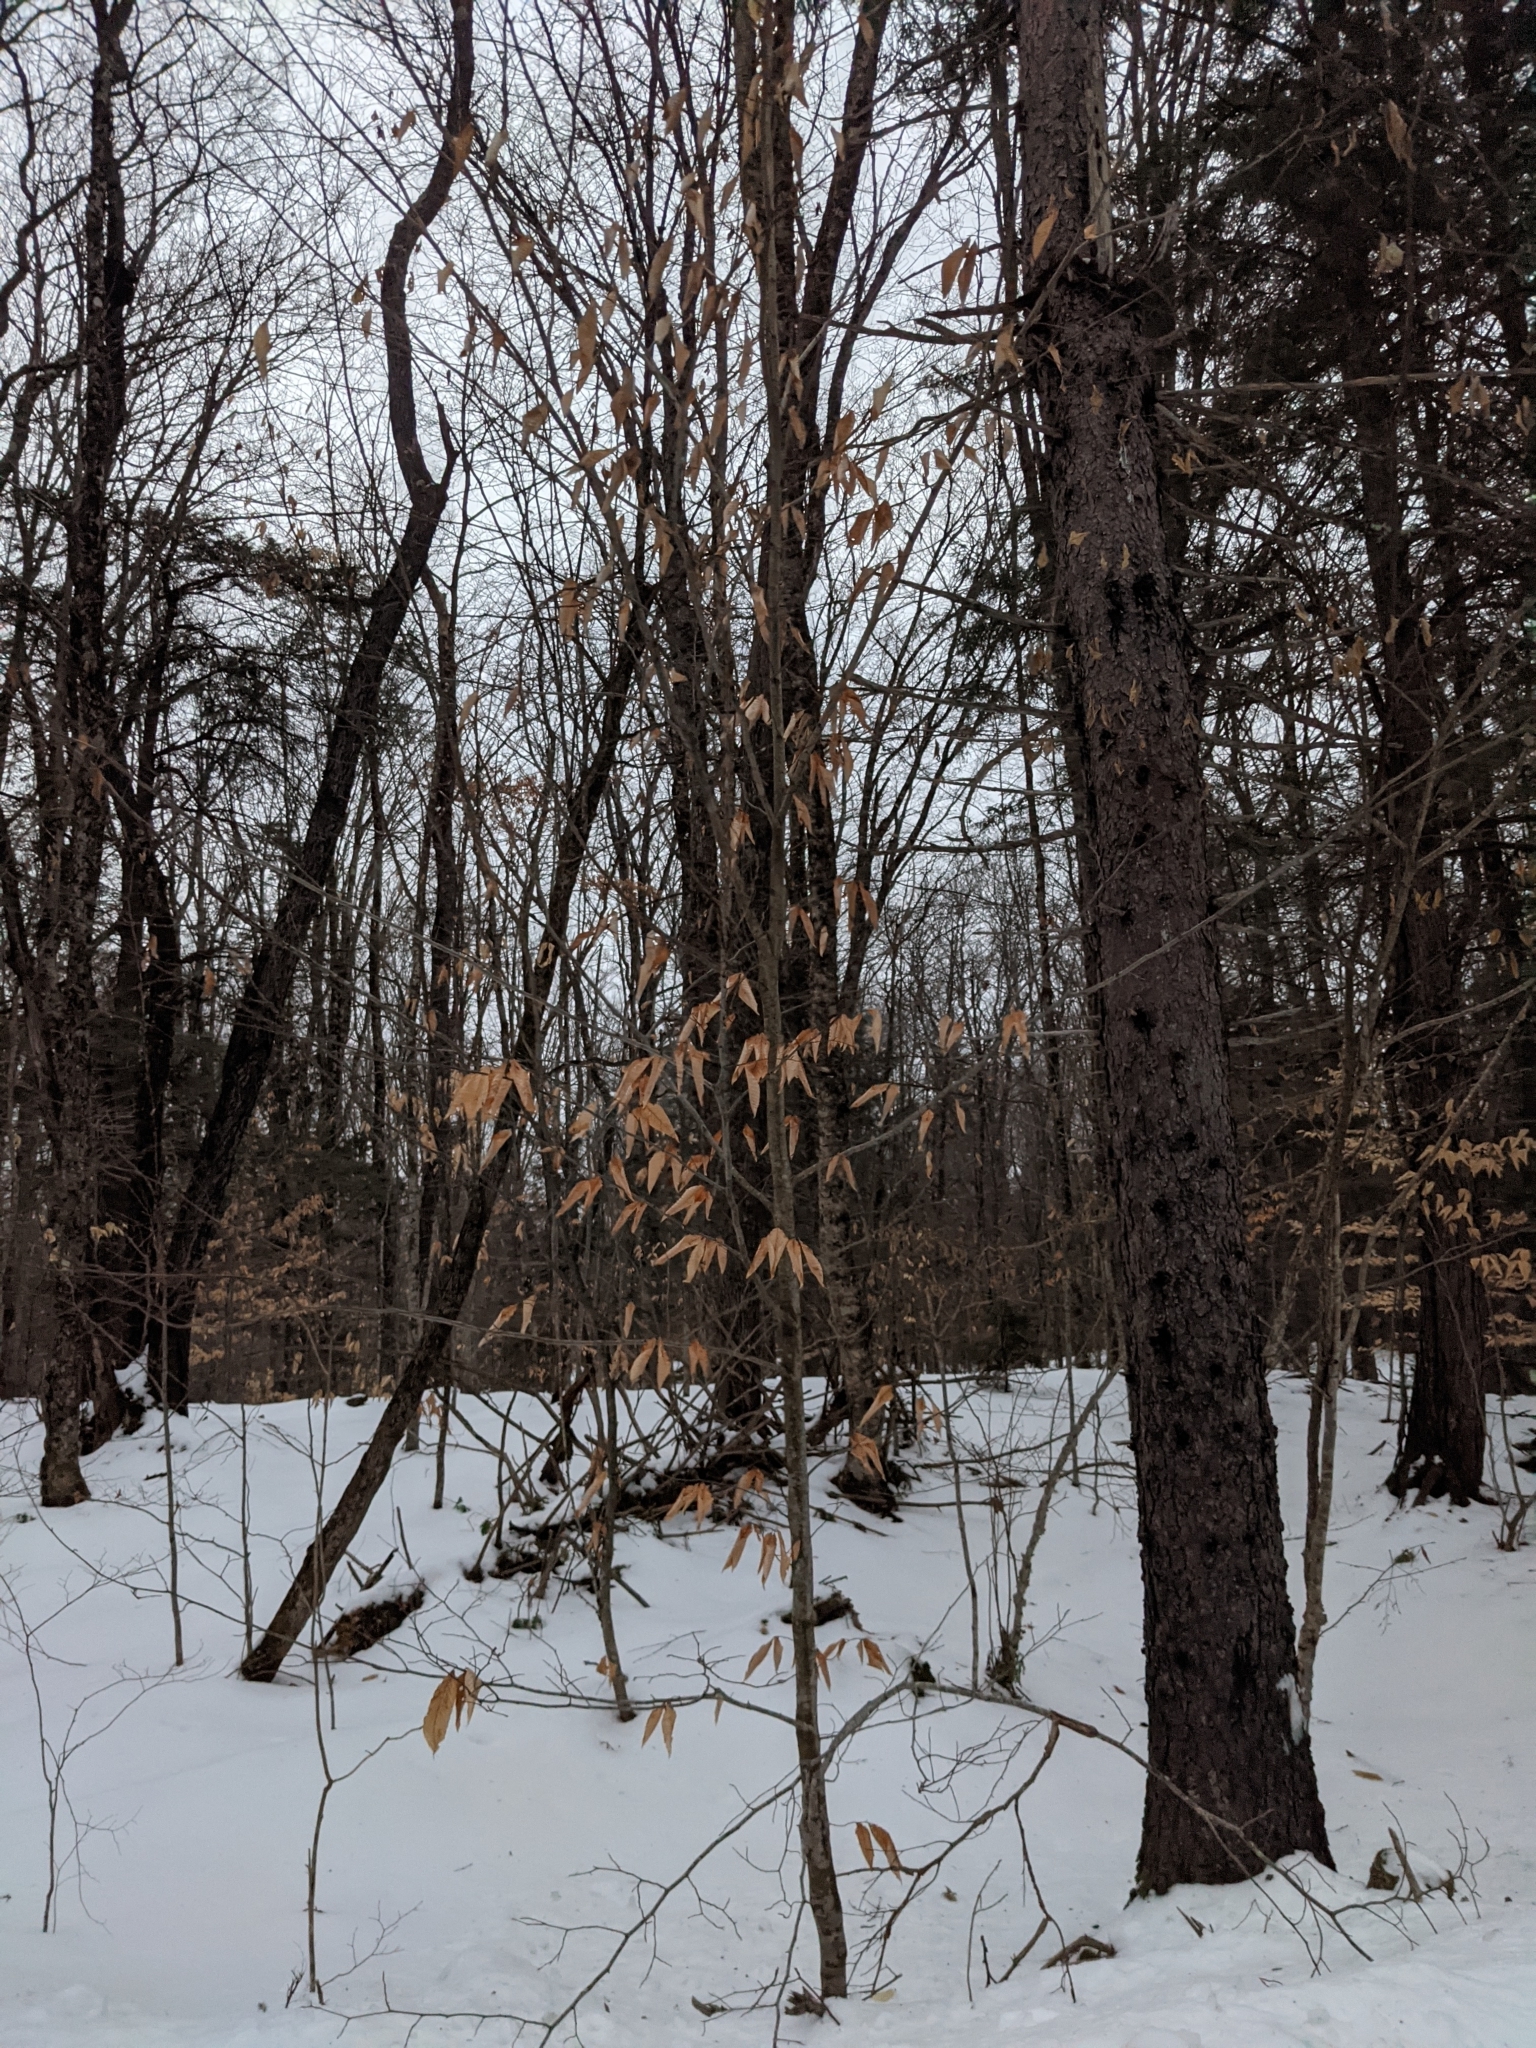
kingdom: Plantae
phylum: Tracheophyta
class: Magnoliopsida
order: Fagales
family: Fagaceae
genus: Fagus
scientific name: Fagus grandifolia
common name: American beech
